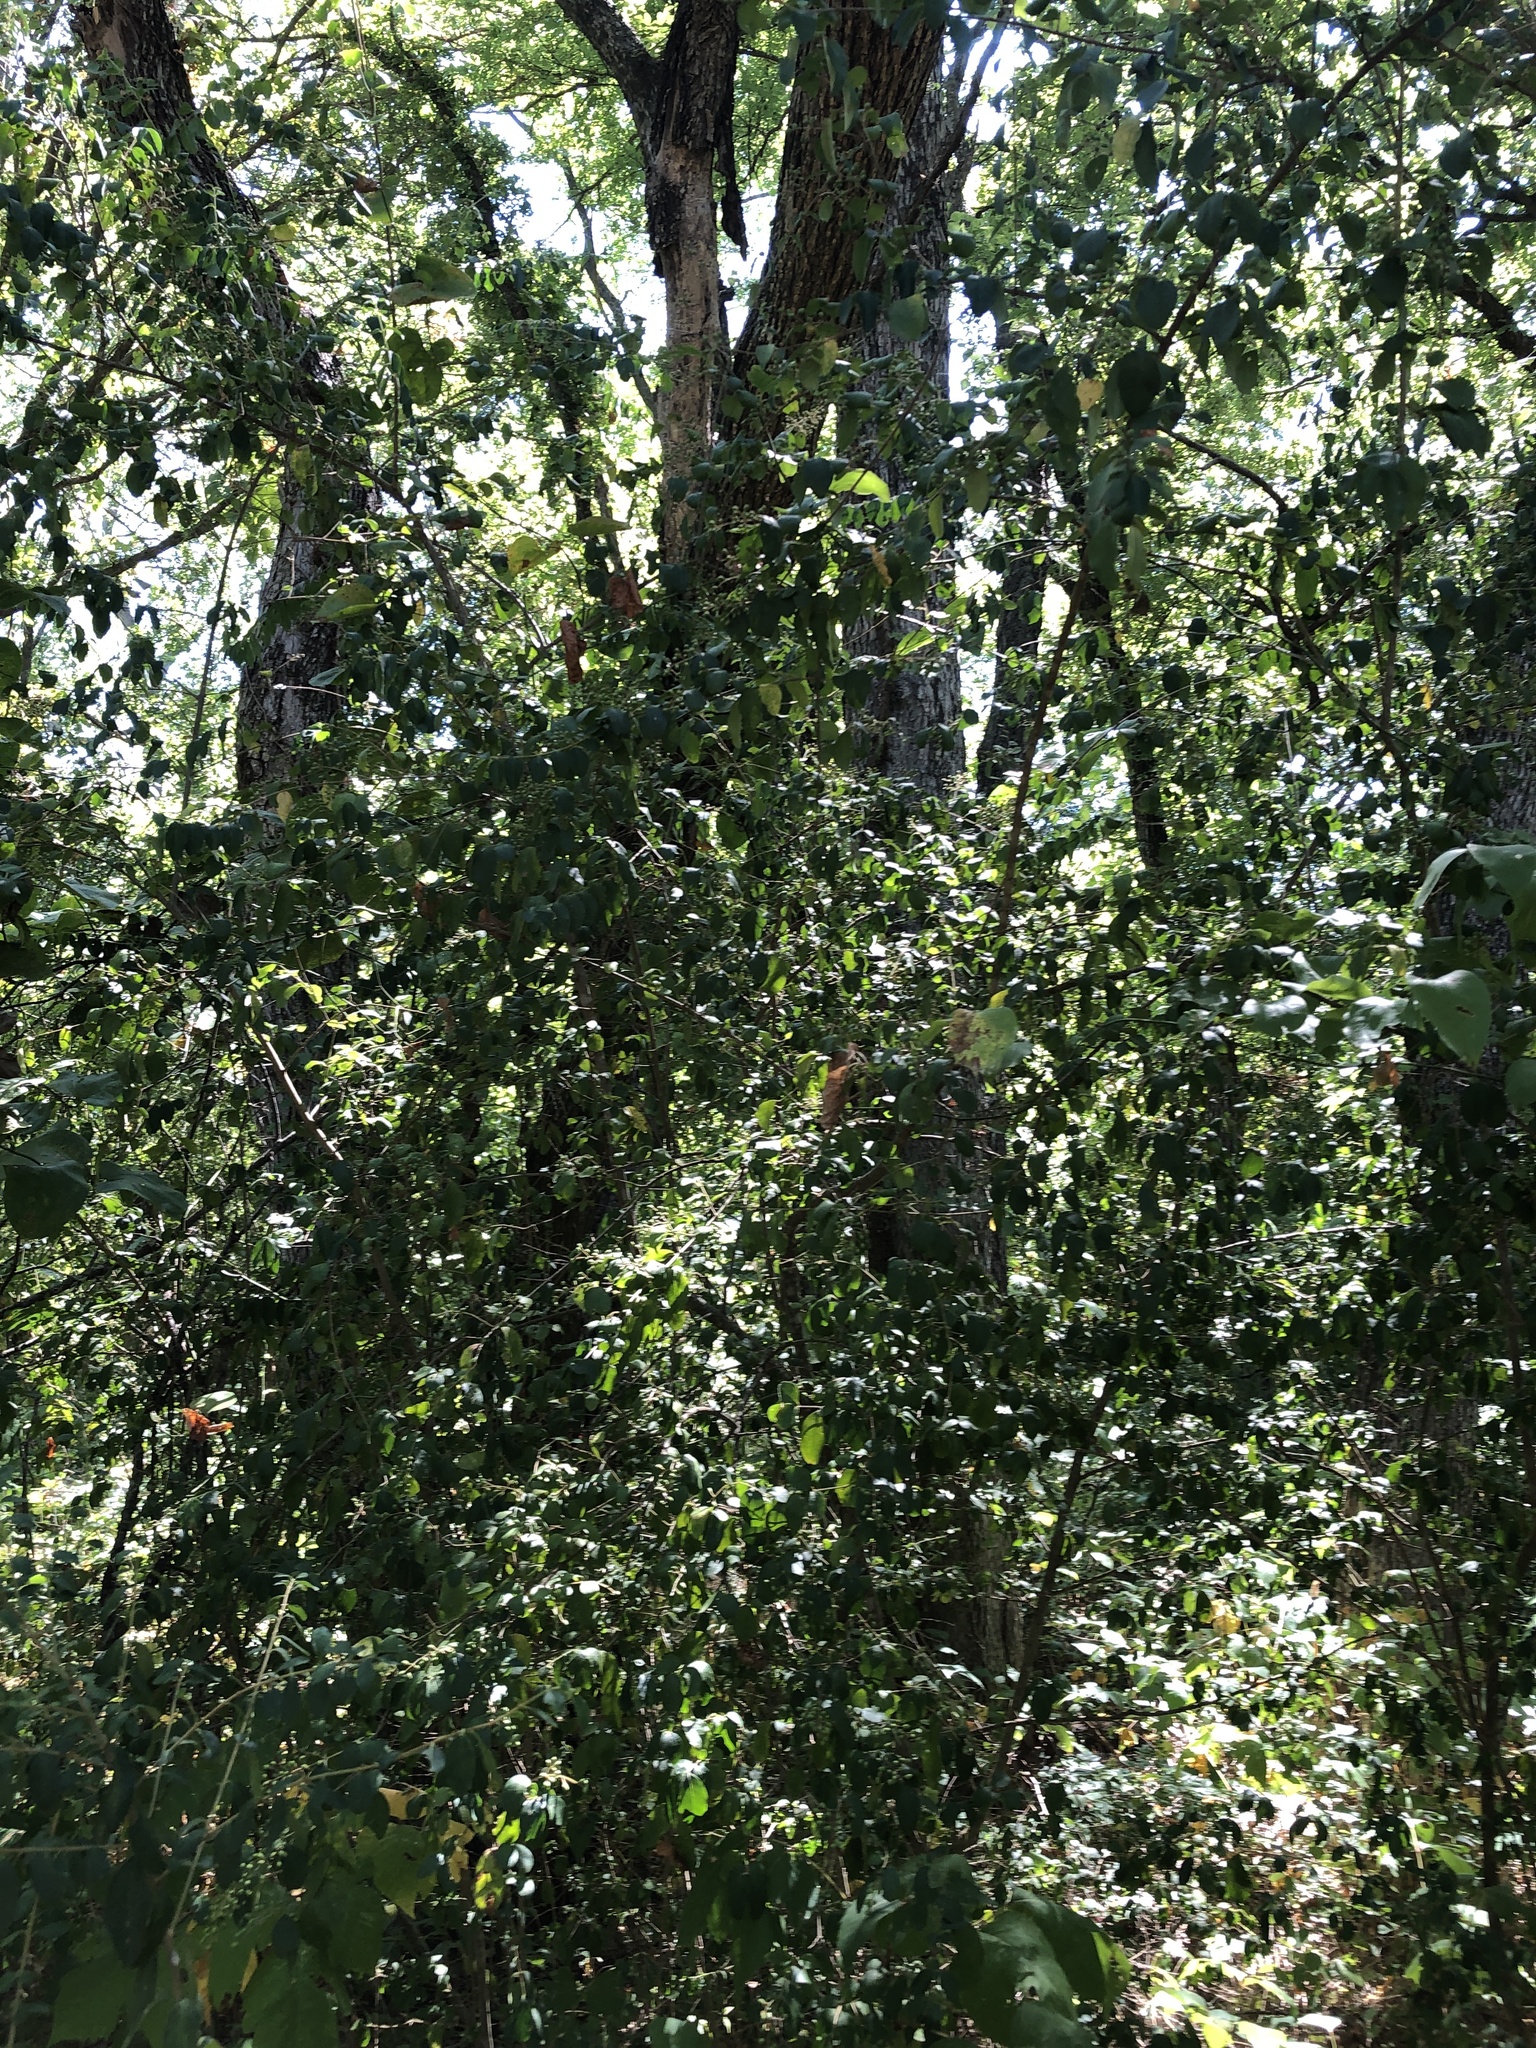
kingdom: Plantae
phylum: Tracheophyta
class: Magnoliopsida
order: Lamiales
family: Oleaceae
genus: Ligustrum
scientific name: Ligustrum sinense
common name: Chinese privet
